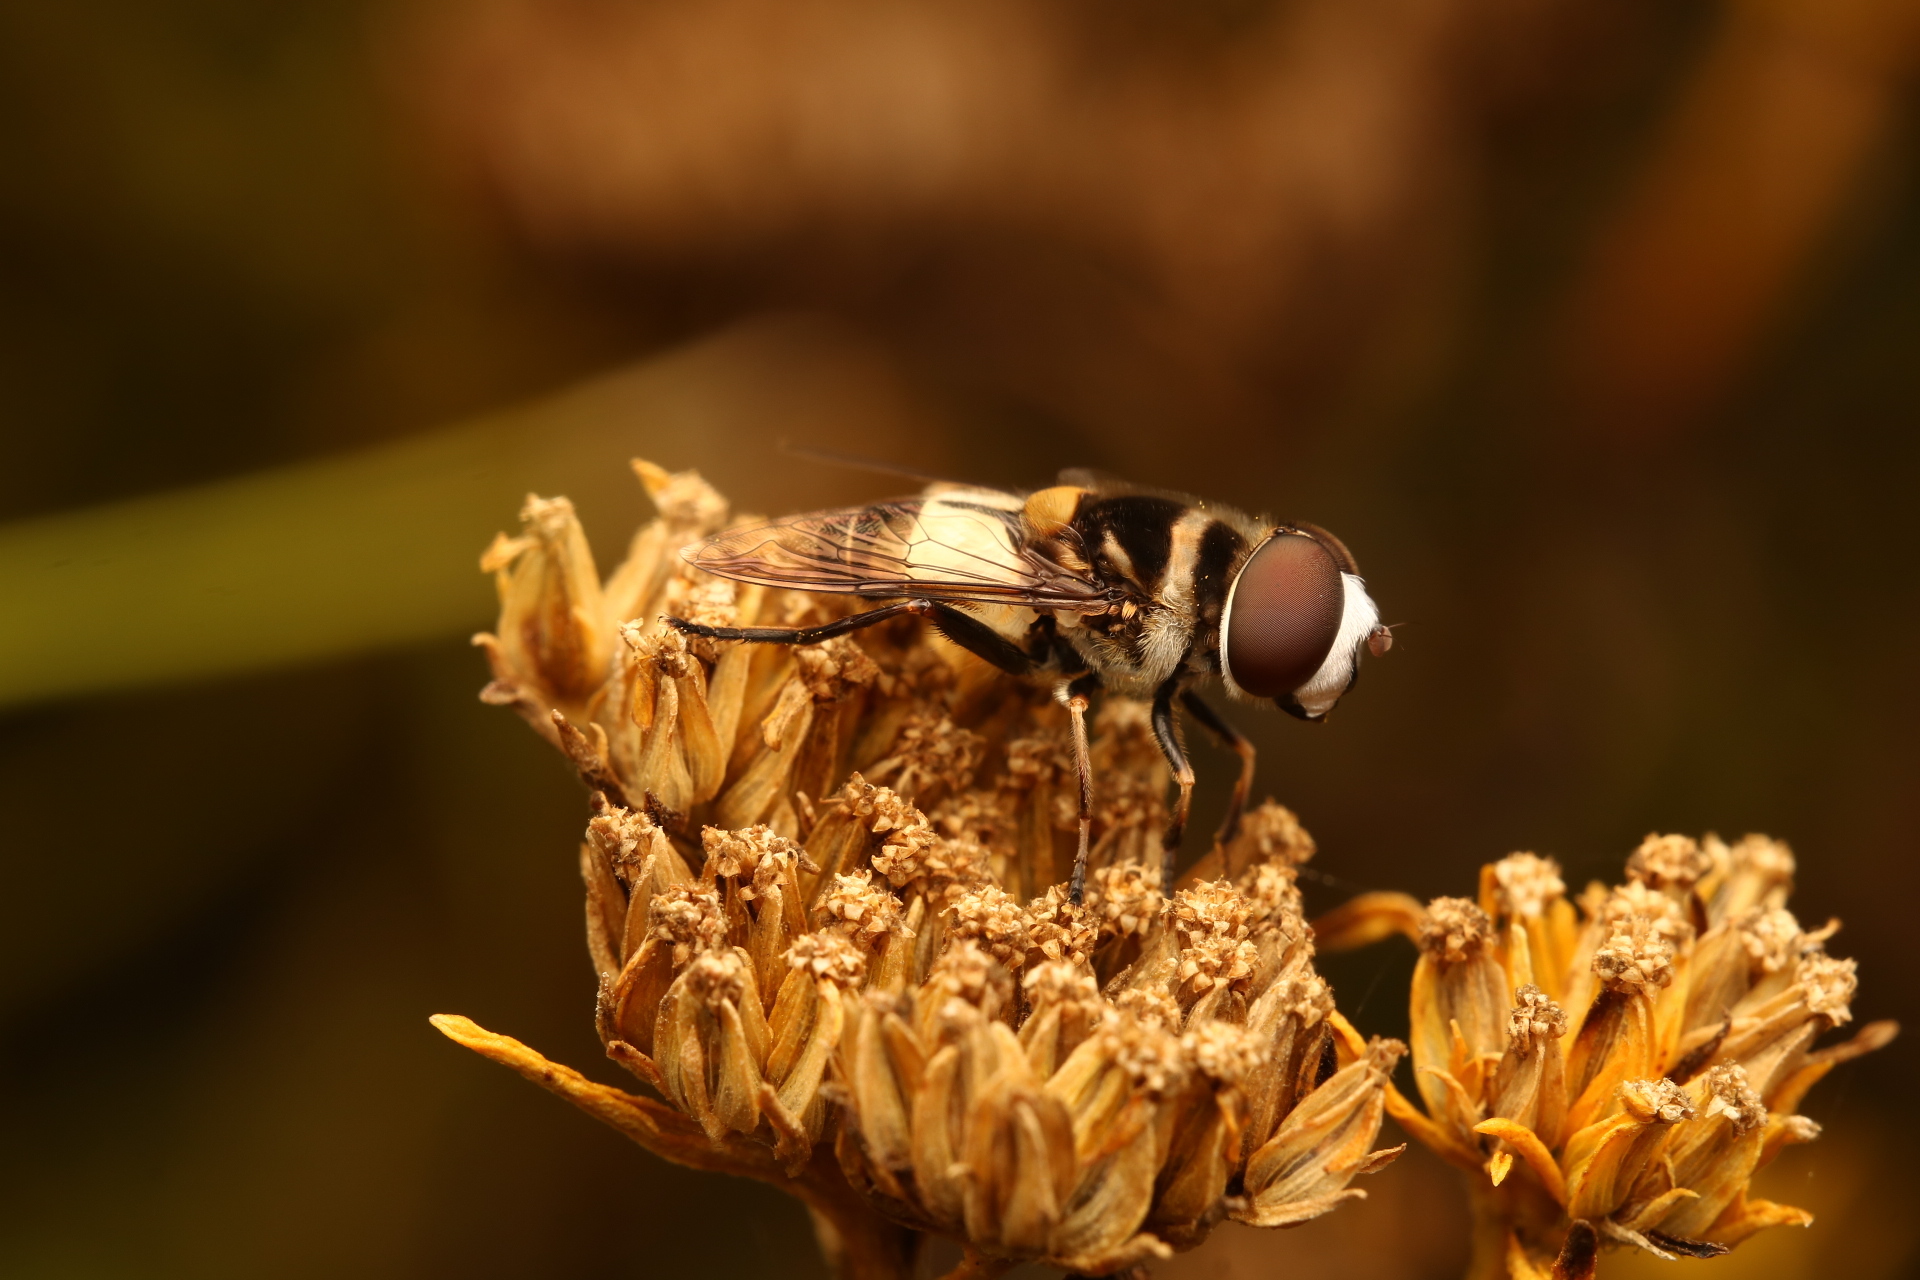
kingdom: Animalia
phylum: Arthropoda
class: Insecta
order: Diptera
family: Syrphidae
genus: Palpada
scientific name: Palpada albifrons
